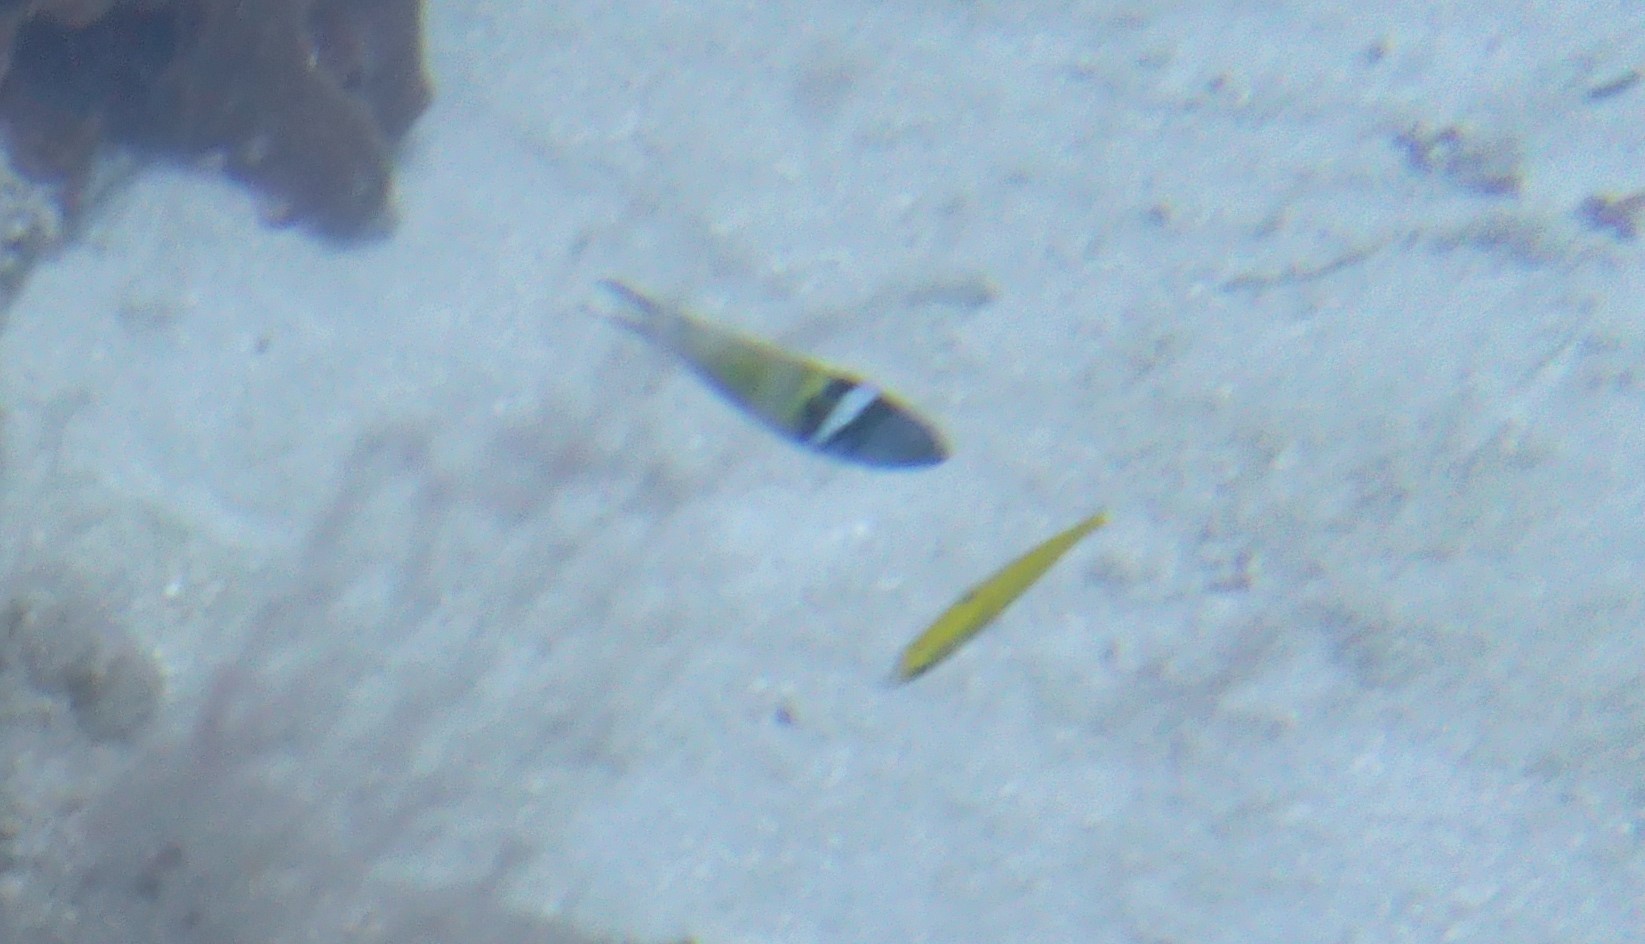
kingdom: Animalia
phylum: Chordata
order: Perciformes
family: Labridae
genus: Thalassoma
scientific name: Thalassoma bifasciatum
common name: Bluehead wrasse
